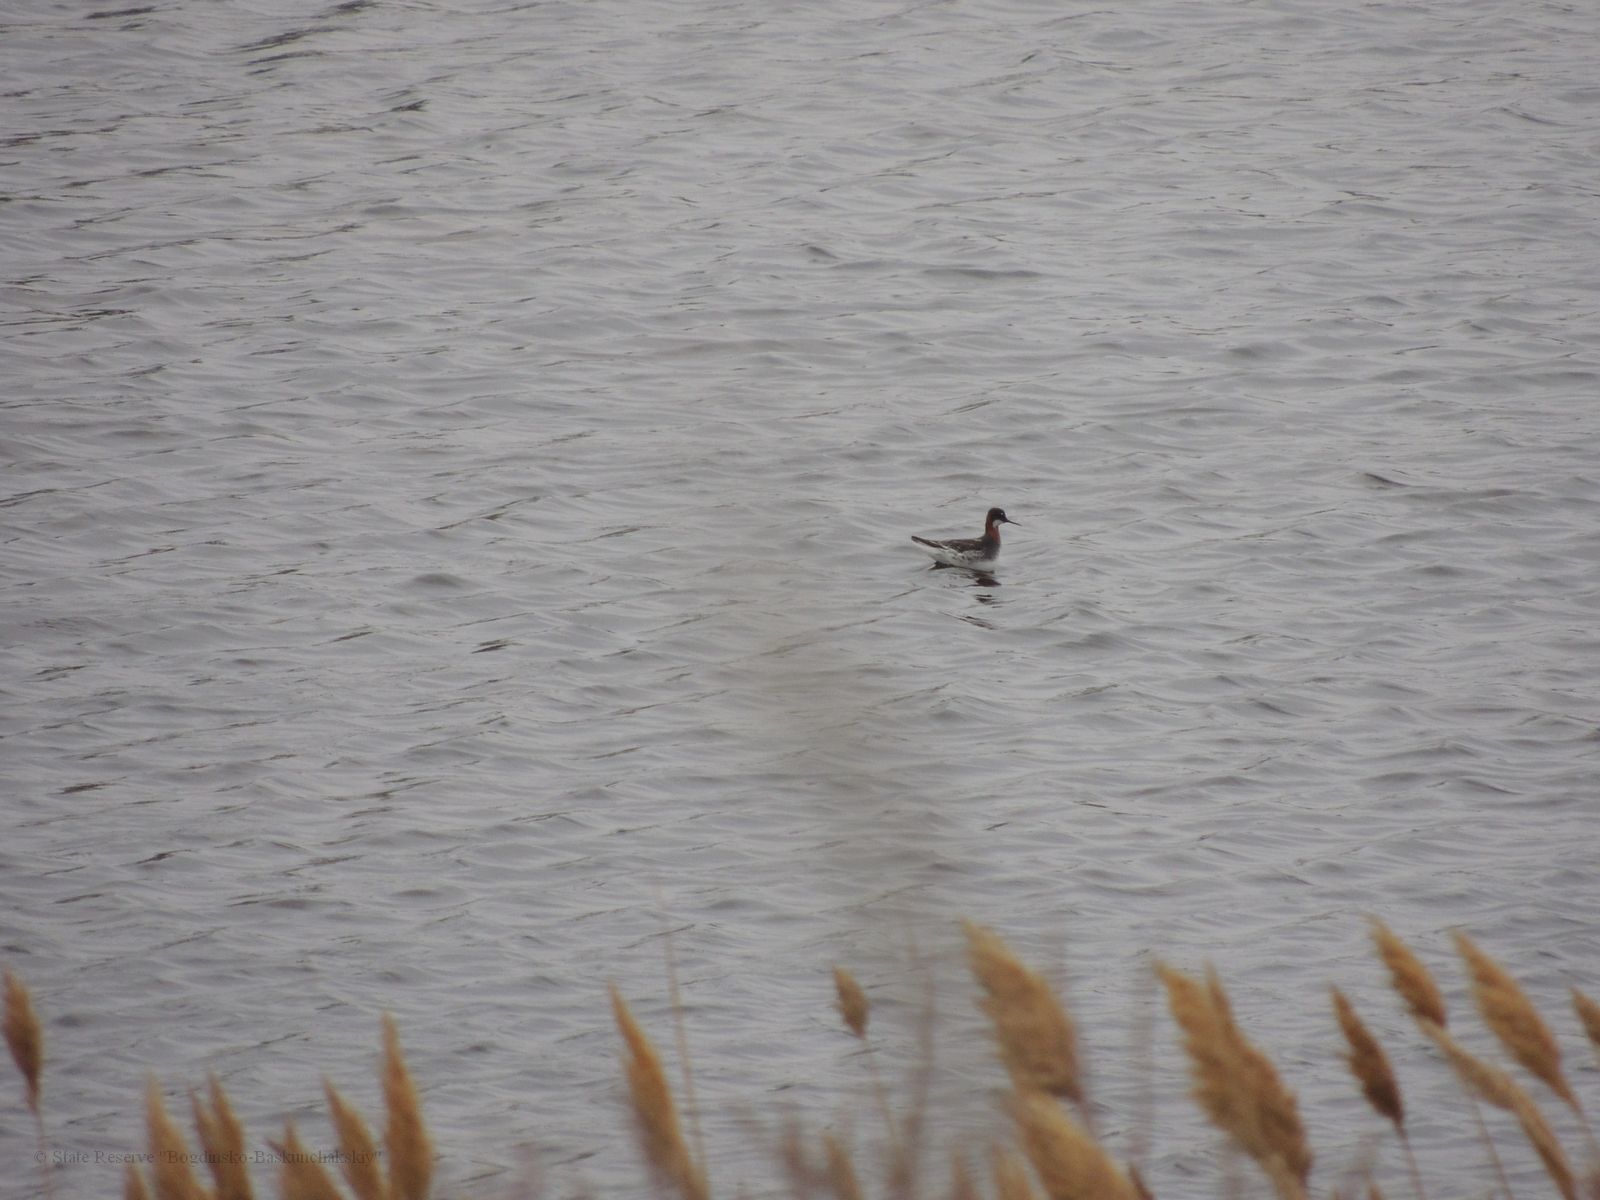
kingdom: Animalia
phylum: Chordata
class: Aves
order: Charadriiformes
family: Scolopacidae
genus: Phalaropus
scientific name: Phalaropus lobatus
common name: Red-necked phalarope
